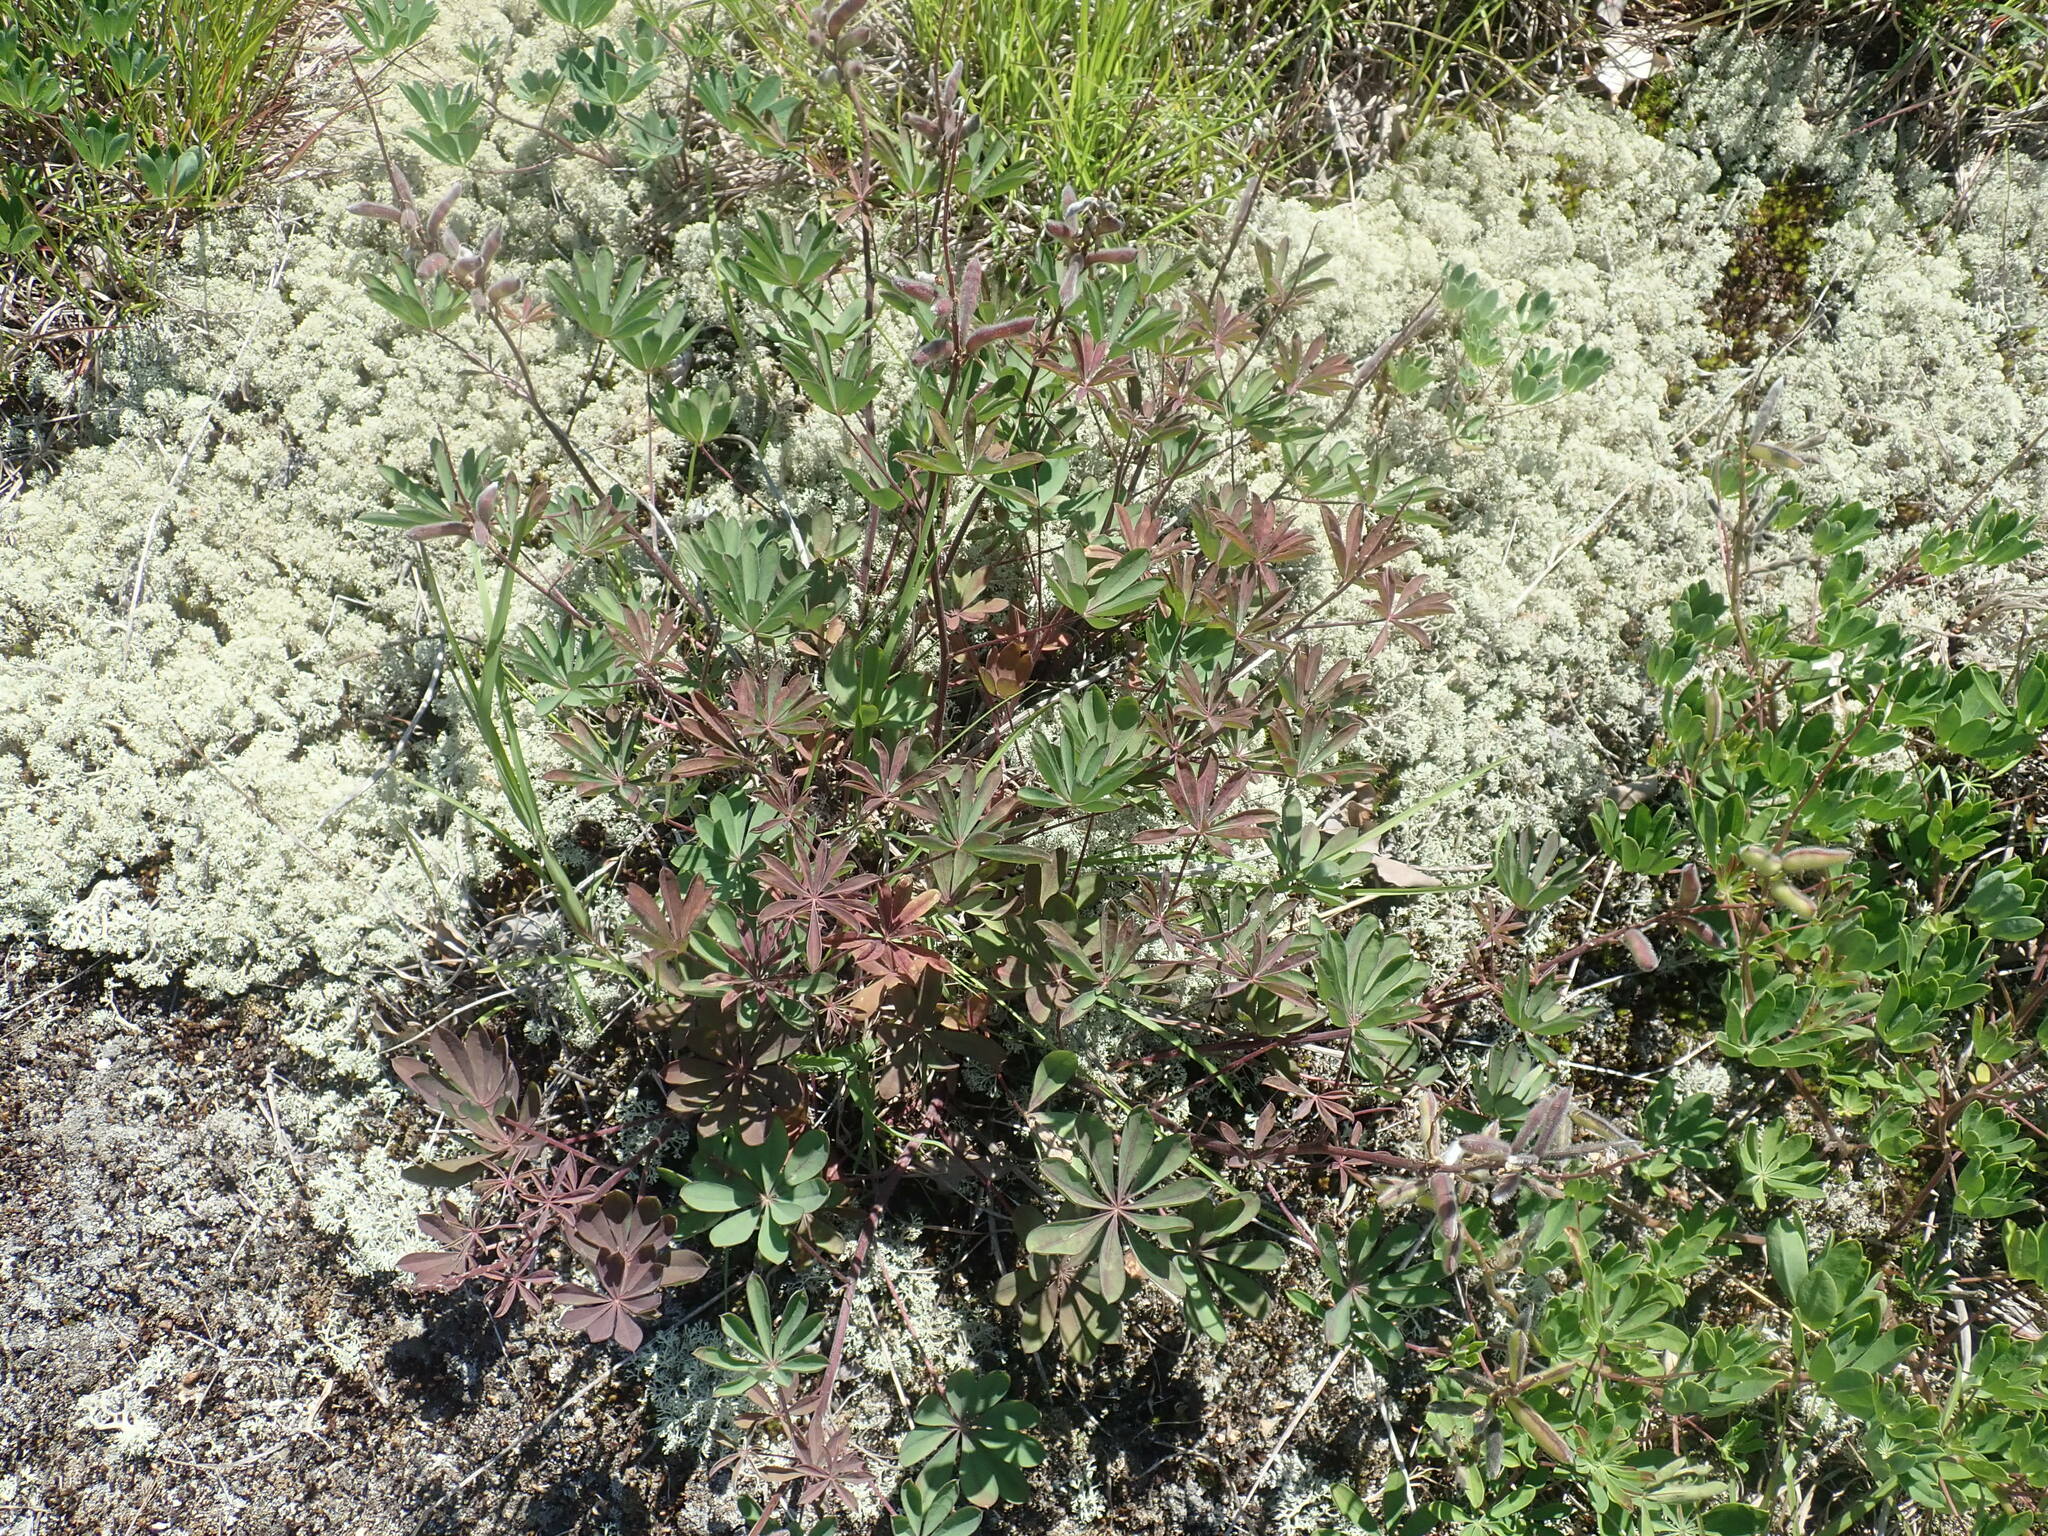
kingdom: Plantae
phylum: Tracheophyta
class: Magnoliopsida
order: Fabales
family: Fabaceae
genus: Lupinus
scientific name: Lupinus perennis
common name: Sundial lupine
